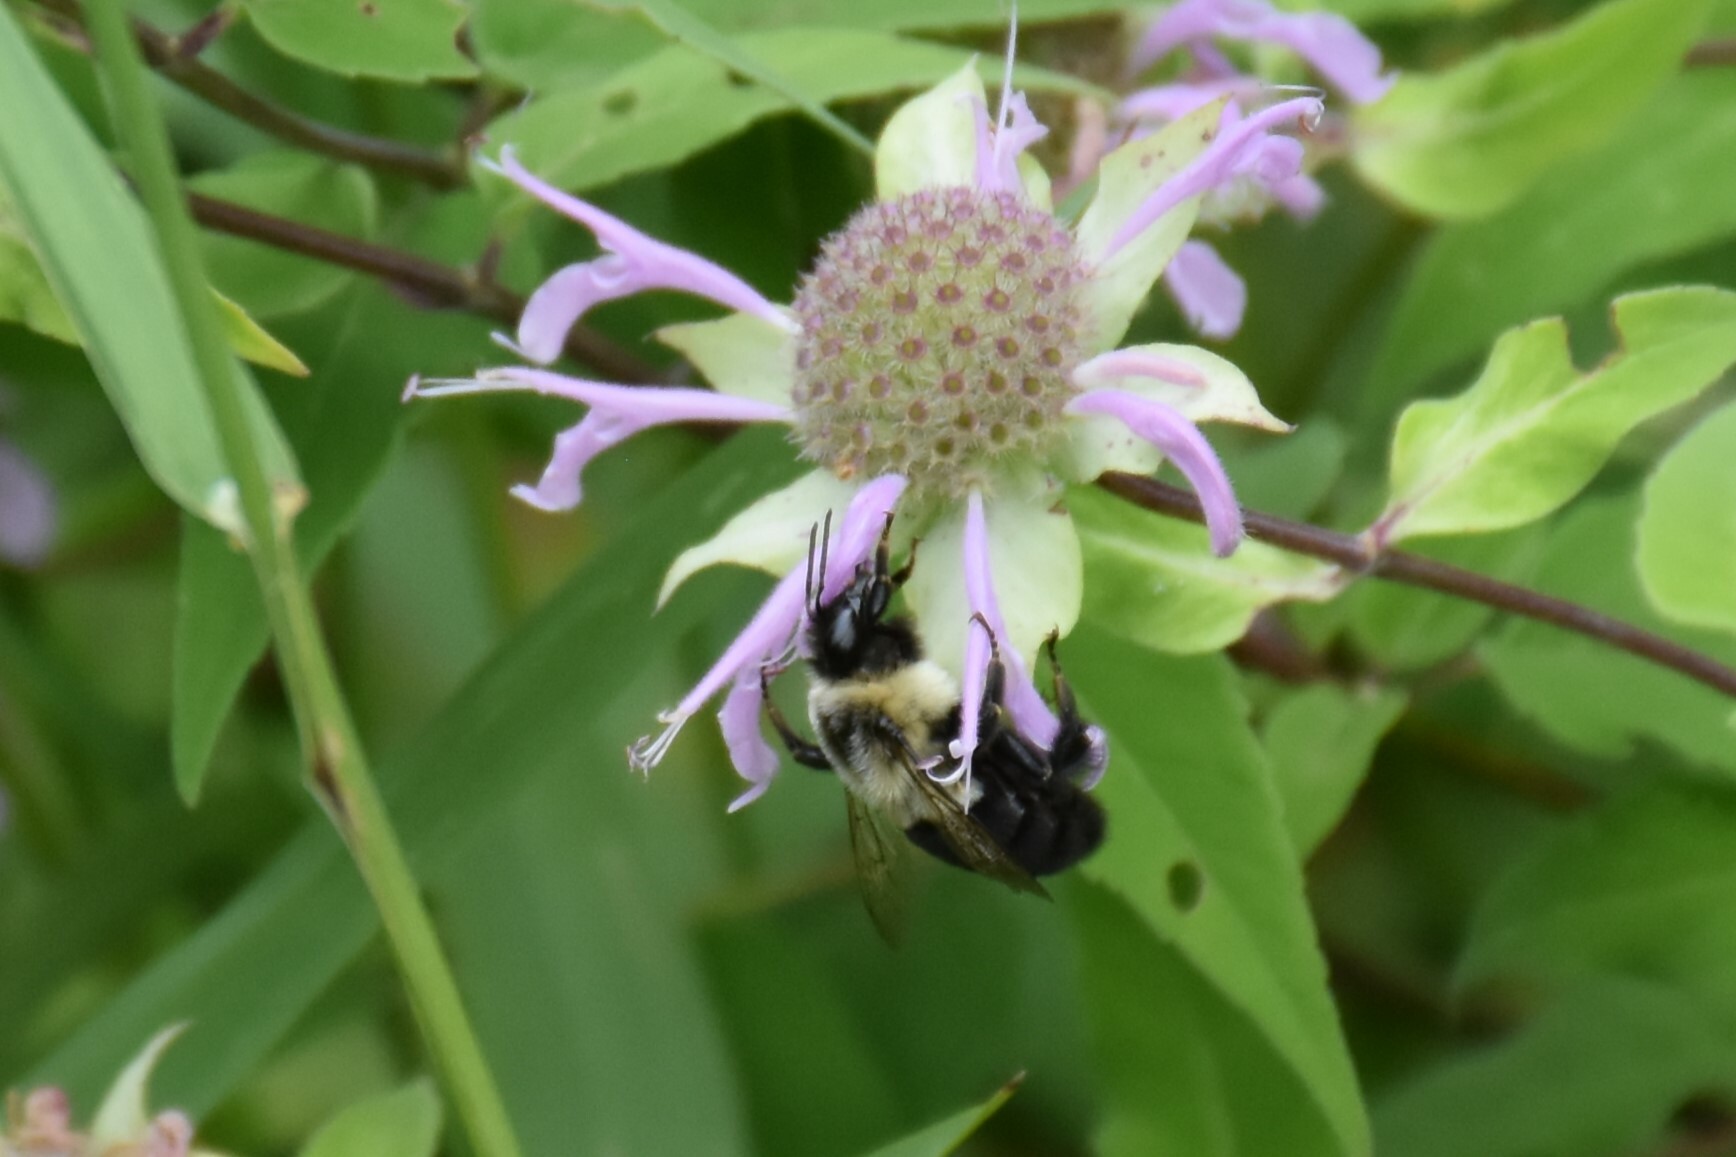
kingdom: Animalia
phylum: Arthropoda
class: Insecta
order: Hymenoptera
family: Apidae
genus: Bombus
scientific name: Bombus impatiens
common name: Common eastern bumble bee
